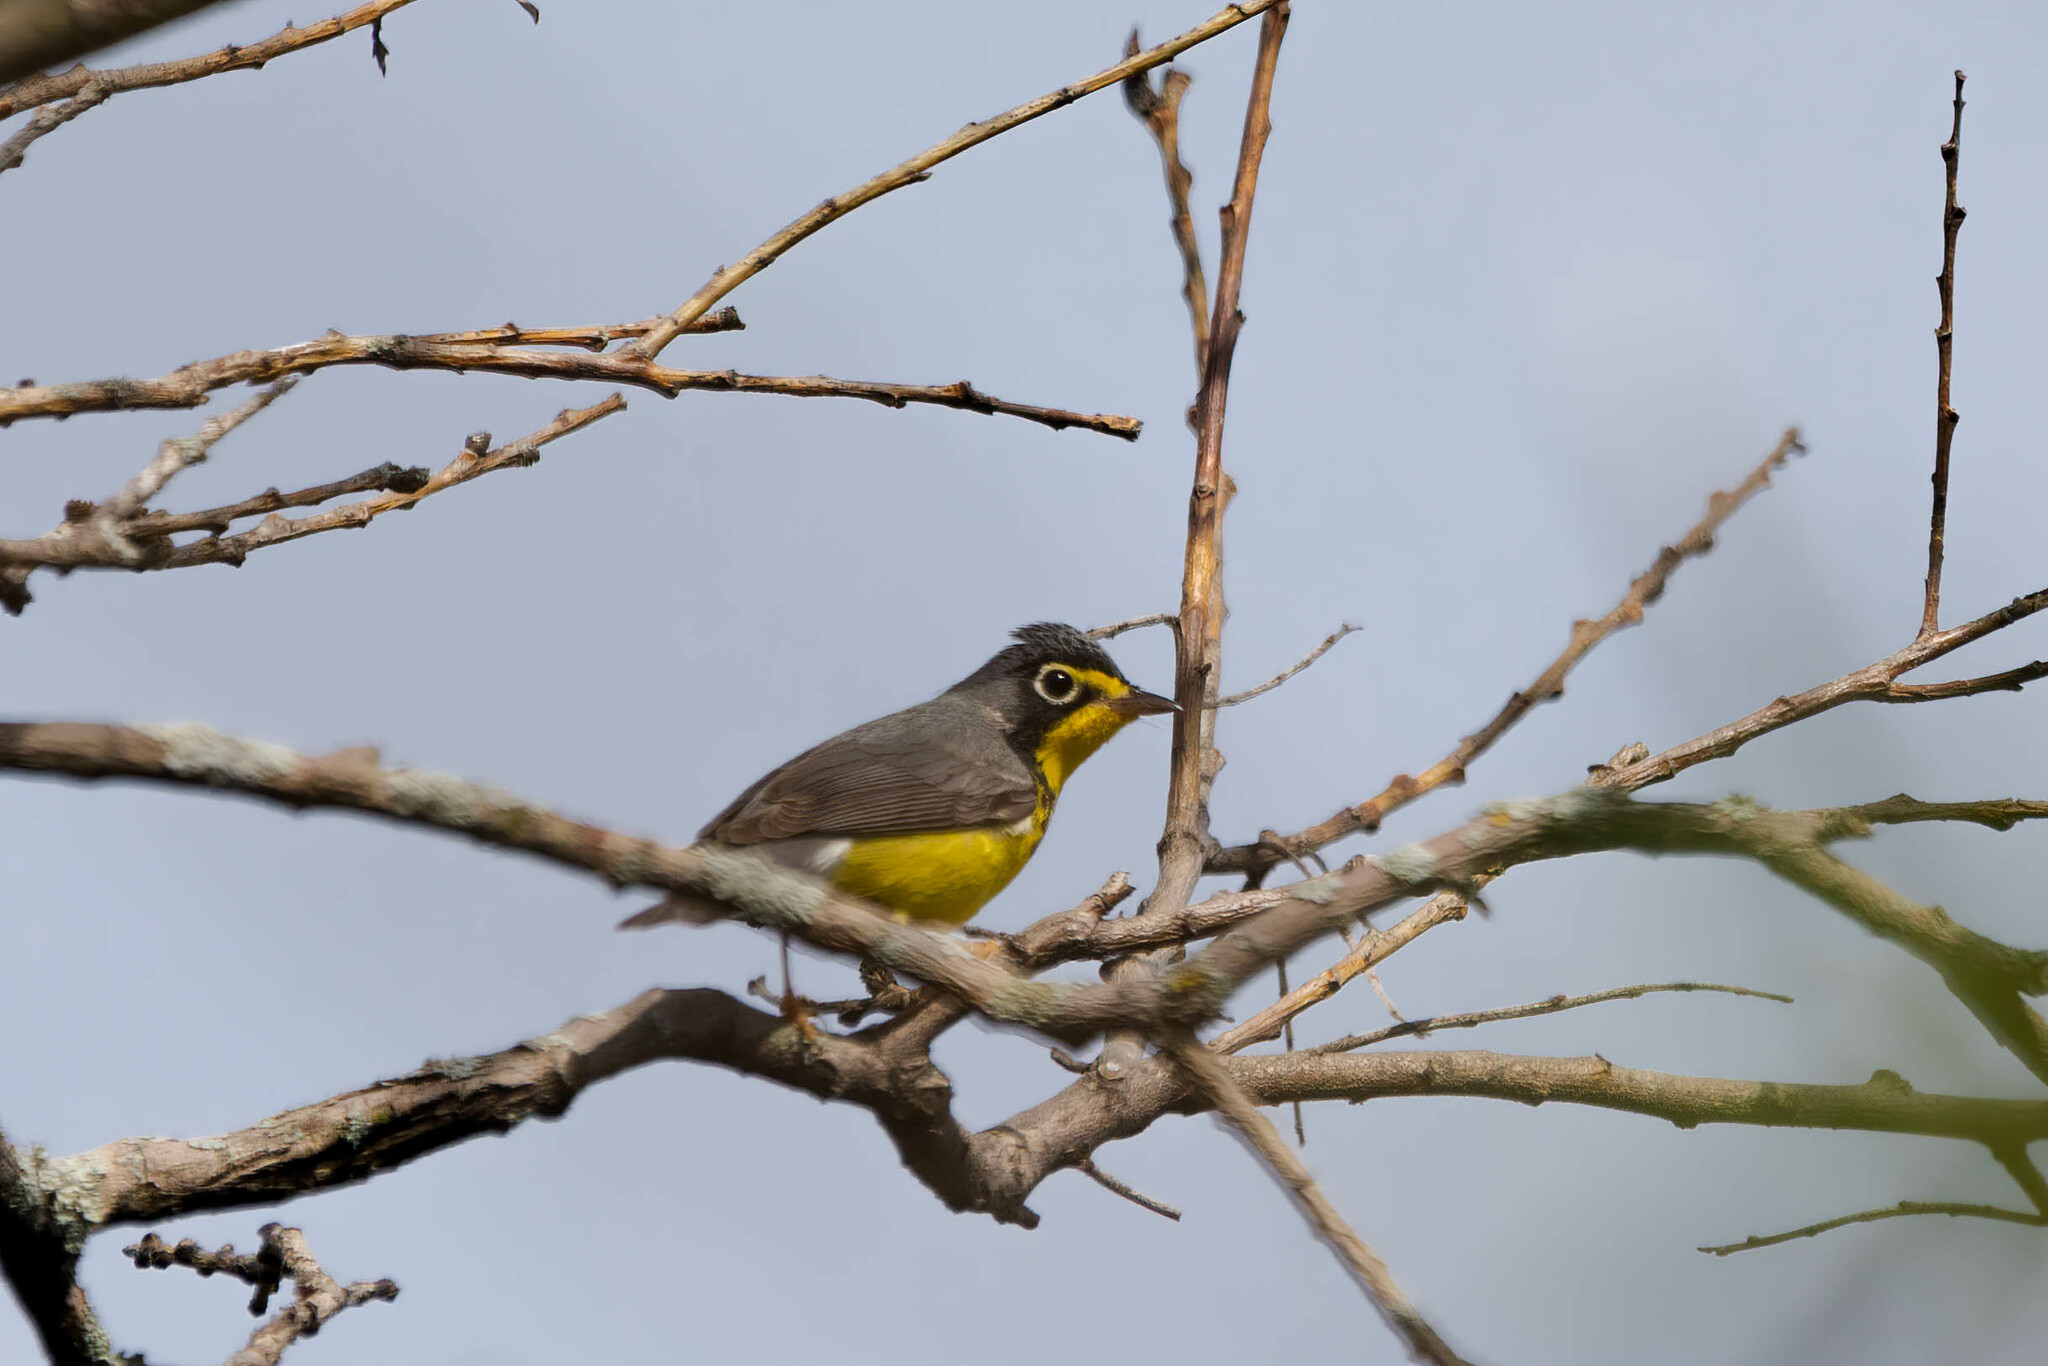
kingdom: Animalia
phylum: Chordata
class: Aves
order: Passeriformes
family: Parulidae
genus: Cardellina
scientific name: Cardellina canadensis
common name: Canada warbler
